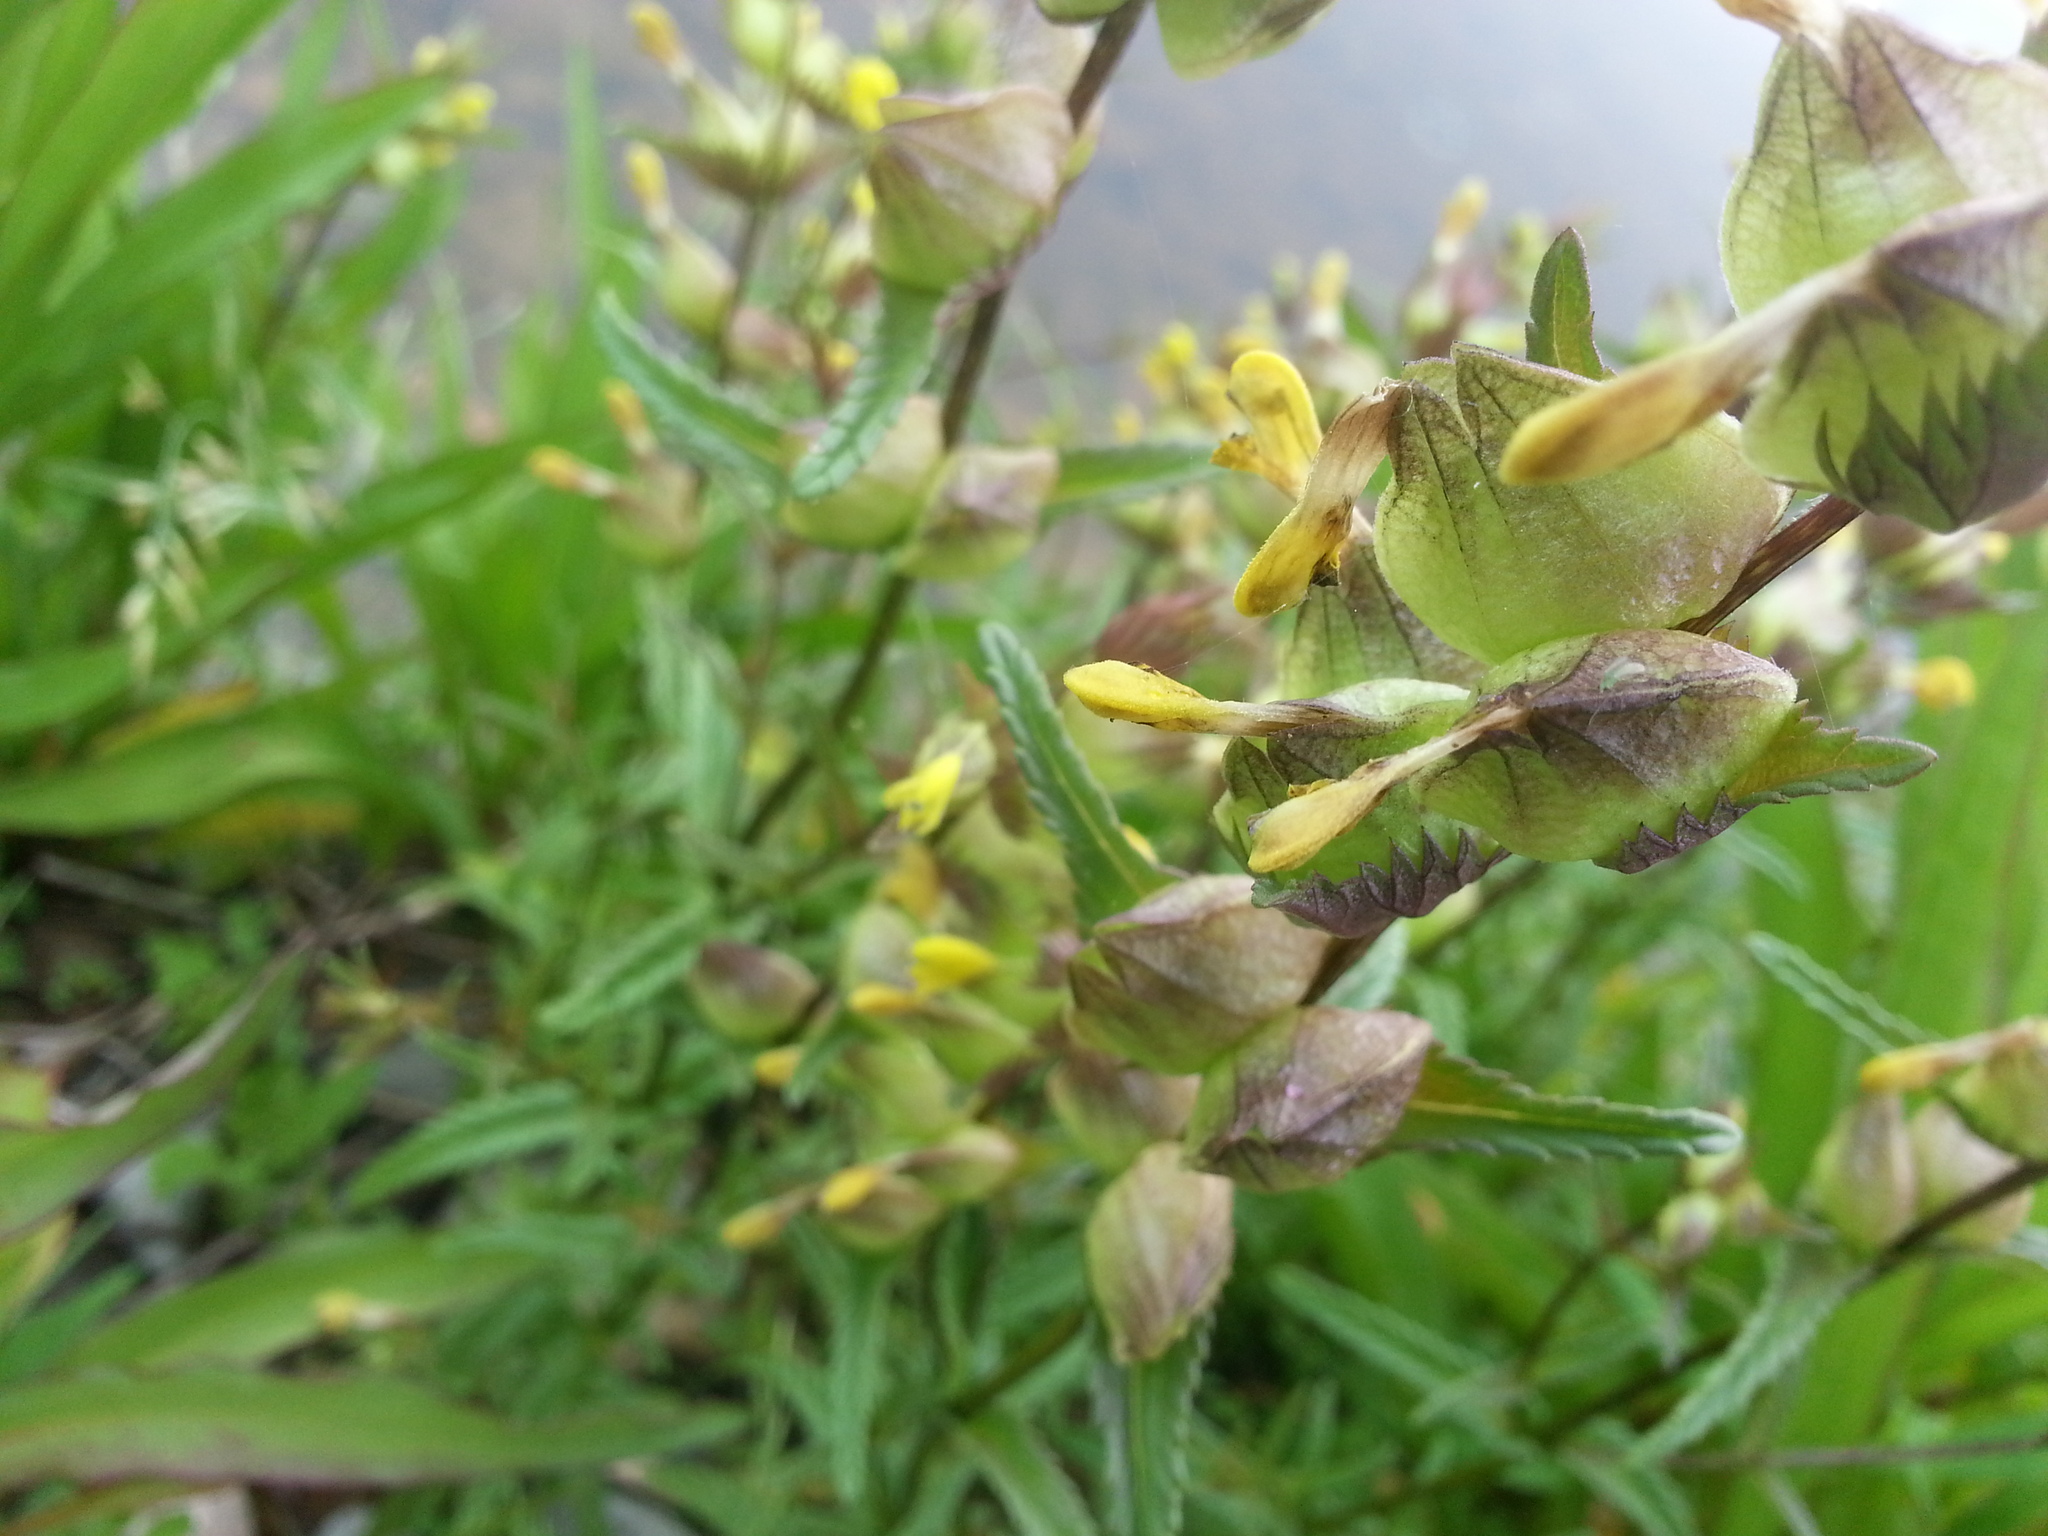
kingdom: Plantae
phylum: Tracheophyta
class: Magnoliopsida
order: Lamiales
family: Orobanchaceae
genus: Rhinanthus
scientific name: Rhinanthus minor
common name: Yellow-rattle
